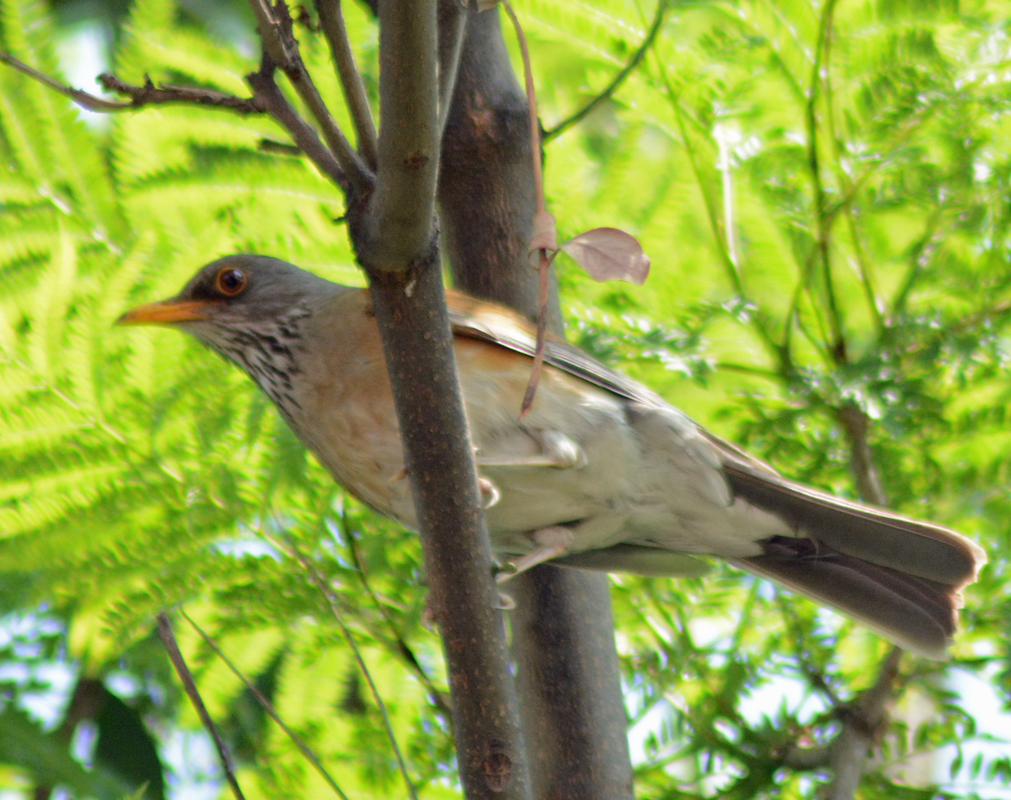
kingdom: Animalia
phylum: Chordata
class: Aves
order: Passeriformes
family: Turdidae
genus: Turdus
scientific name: Turdus rufopalliatus
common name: Rufous-backed robin
